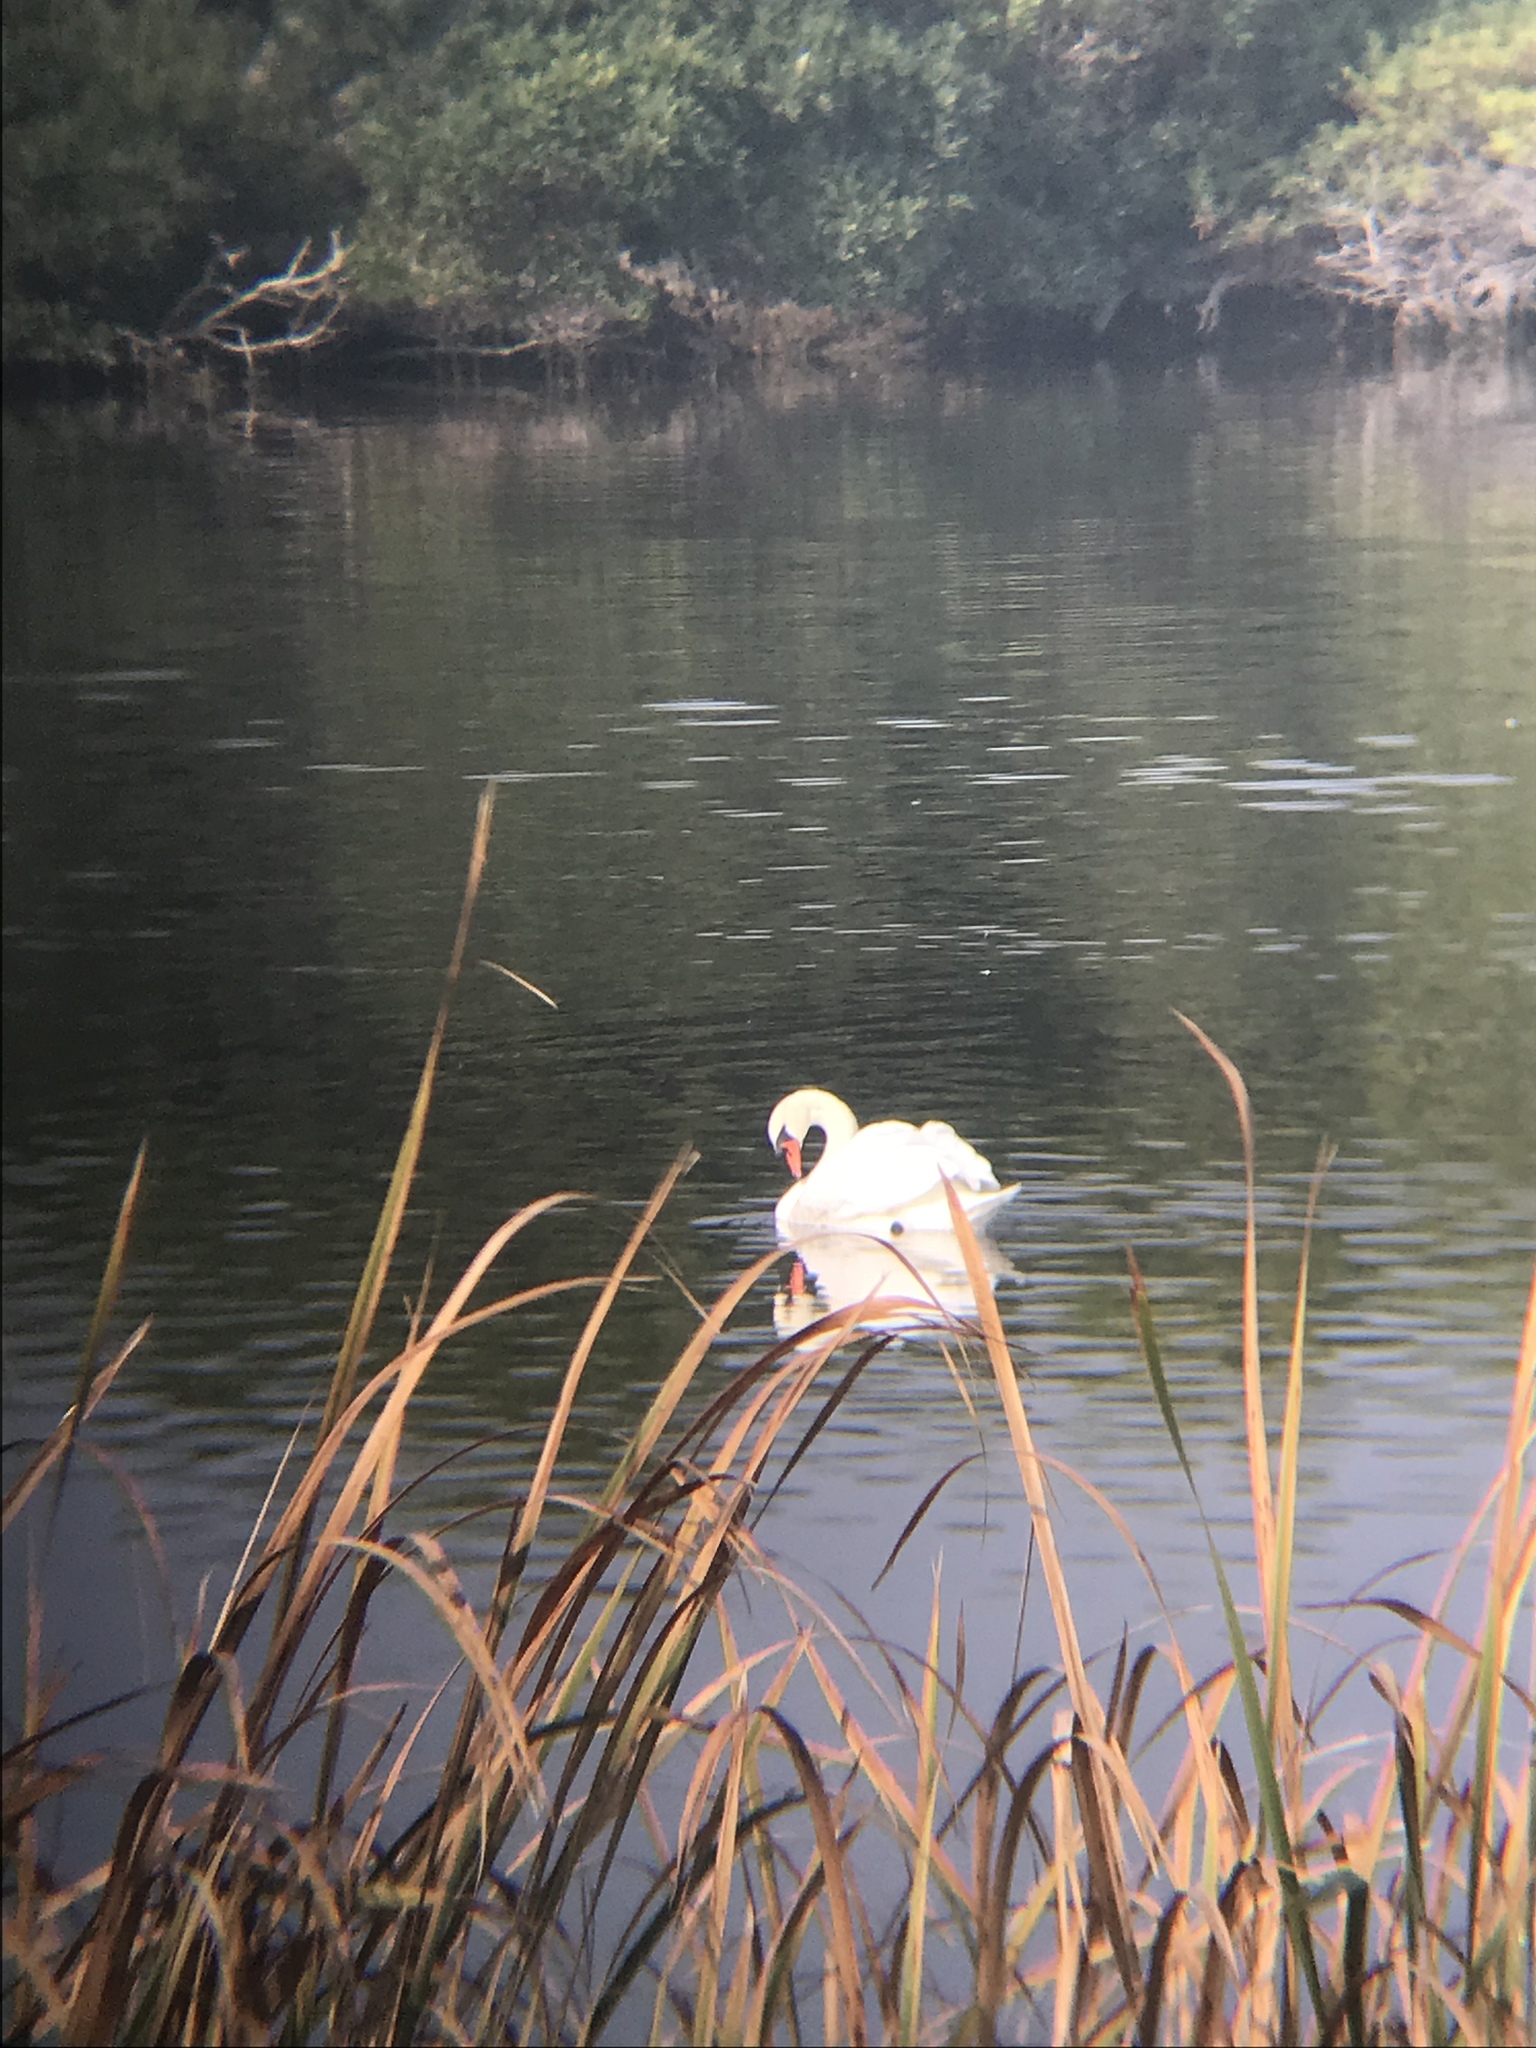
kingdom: Animalia
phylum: Chordata
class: Aves
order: Anseriformes
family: Anatidae
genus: Cygnus
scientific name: Cygnus olor
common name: Mute swan
